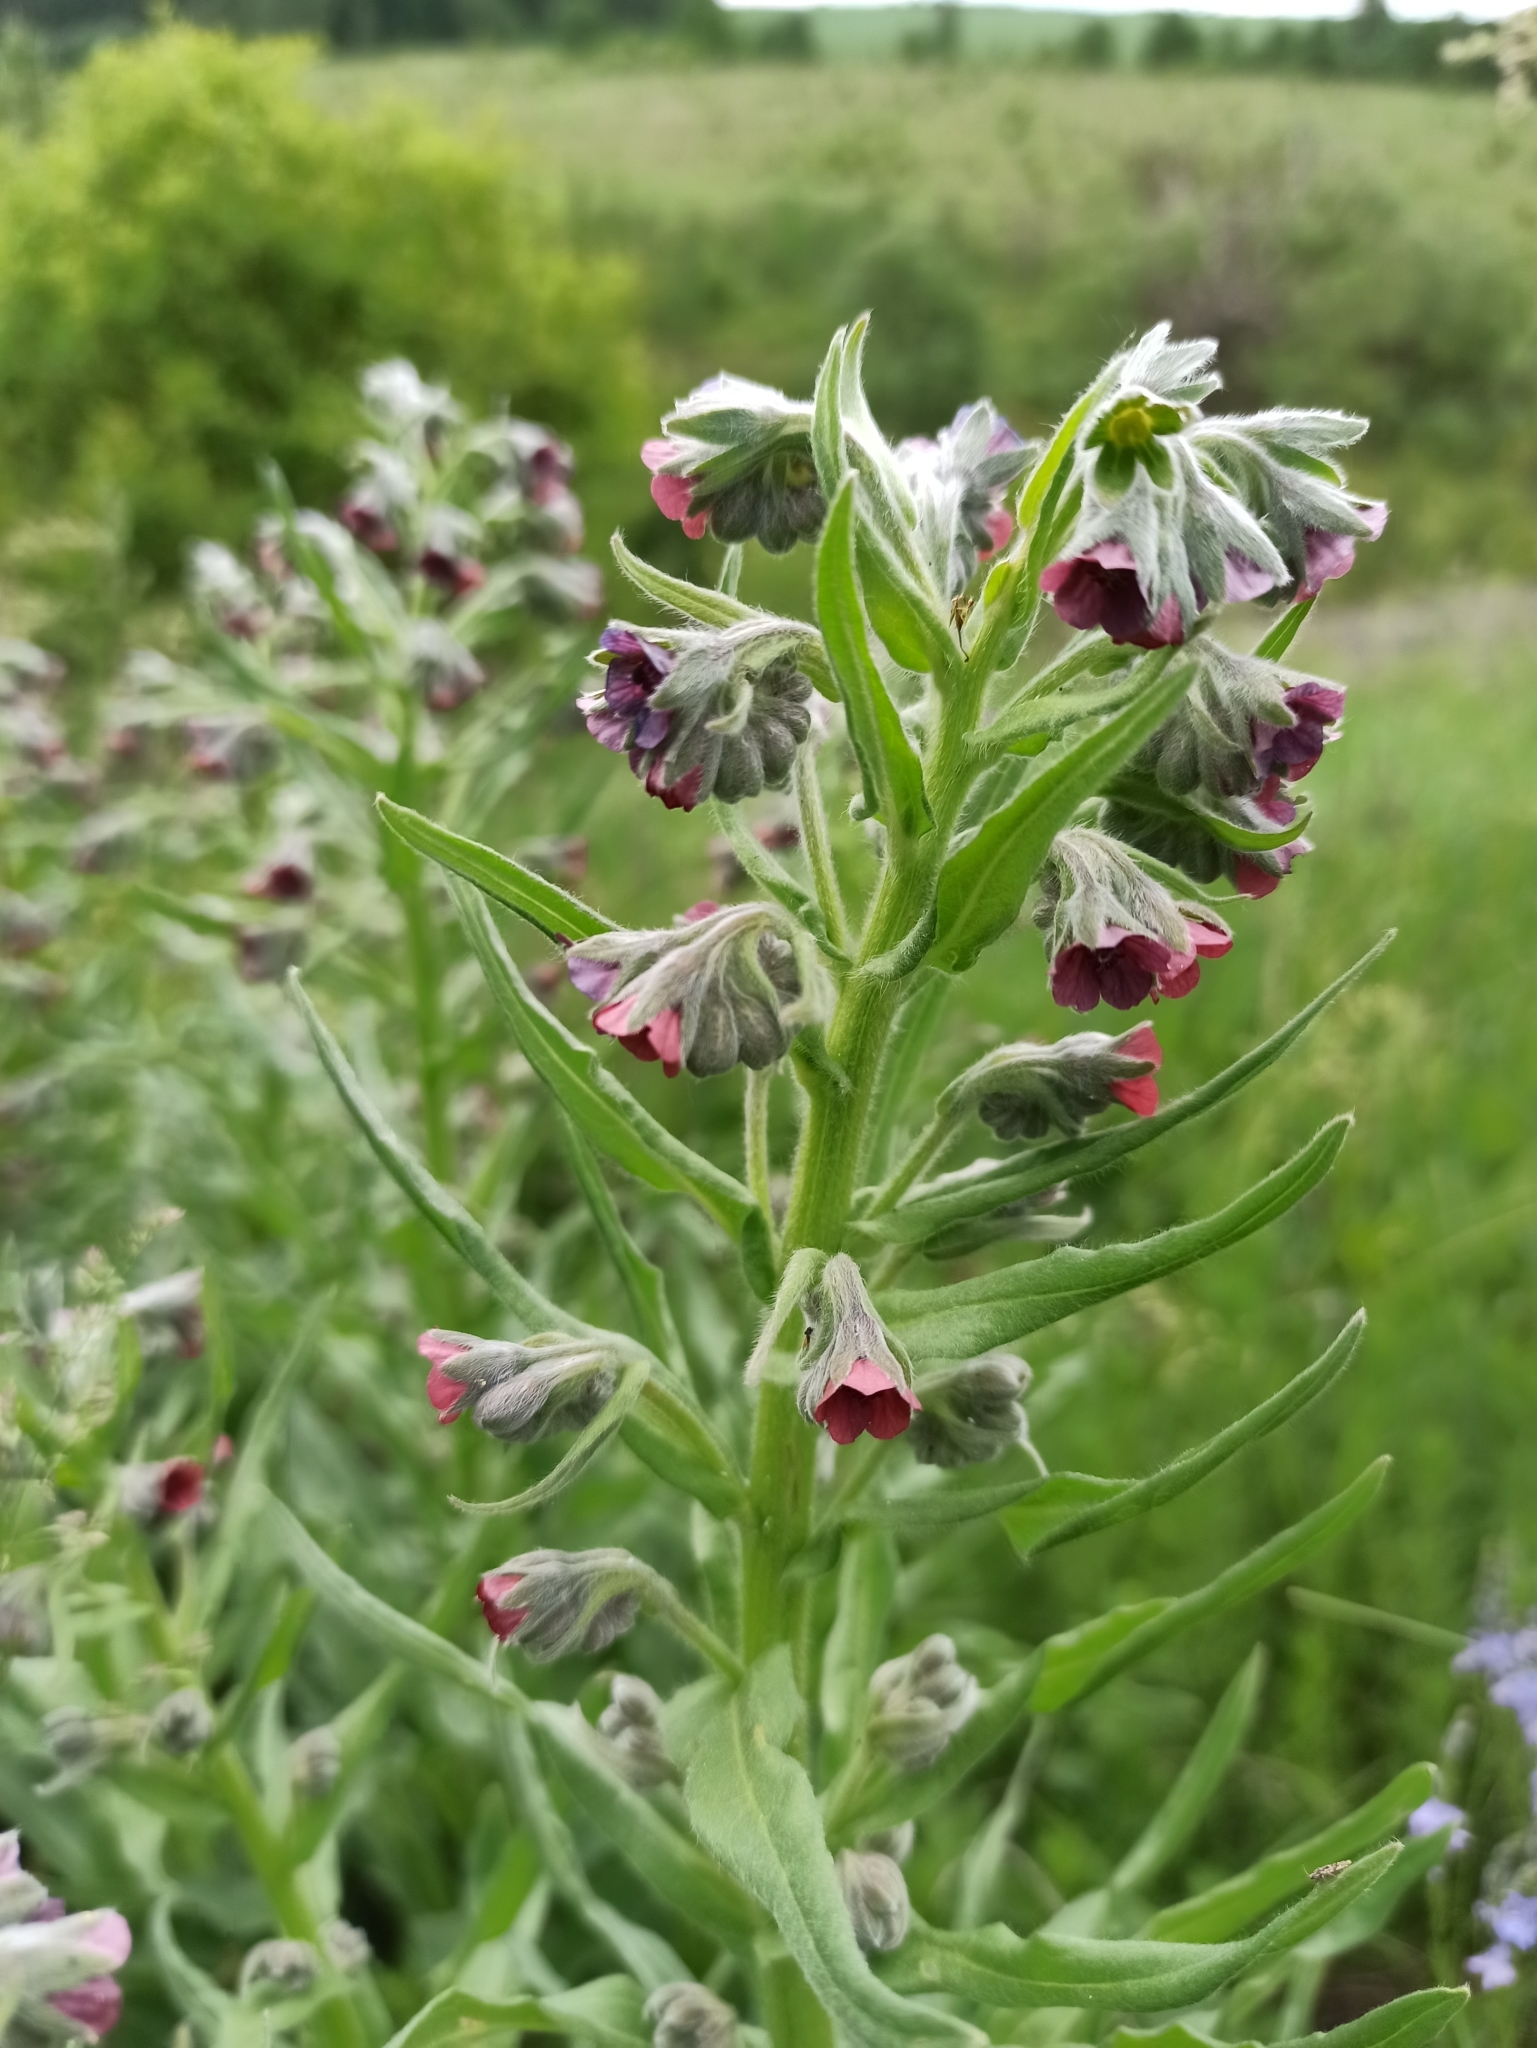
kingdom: Plantae
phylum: Tracheophyta
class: Magnoliopsida
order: Boraginales
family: Boraginaceae
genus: Cynoglossum
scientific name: Cynoglossum officinale
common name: Hound's-tongue
